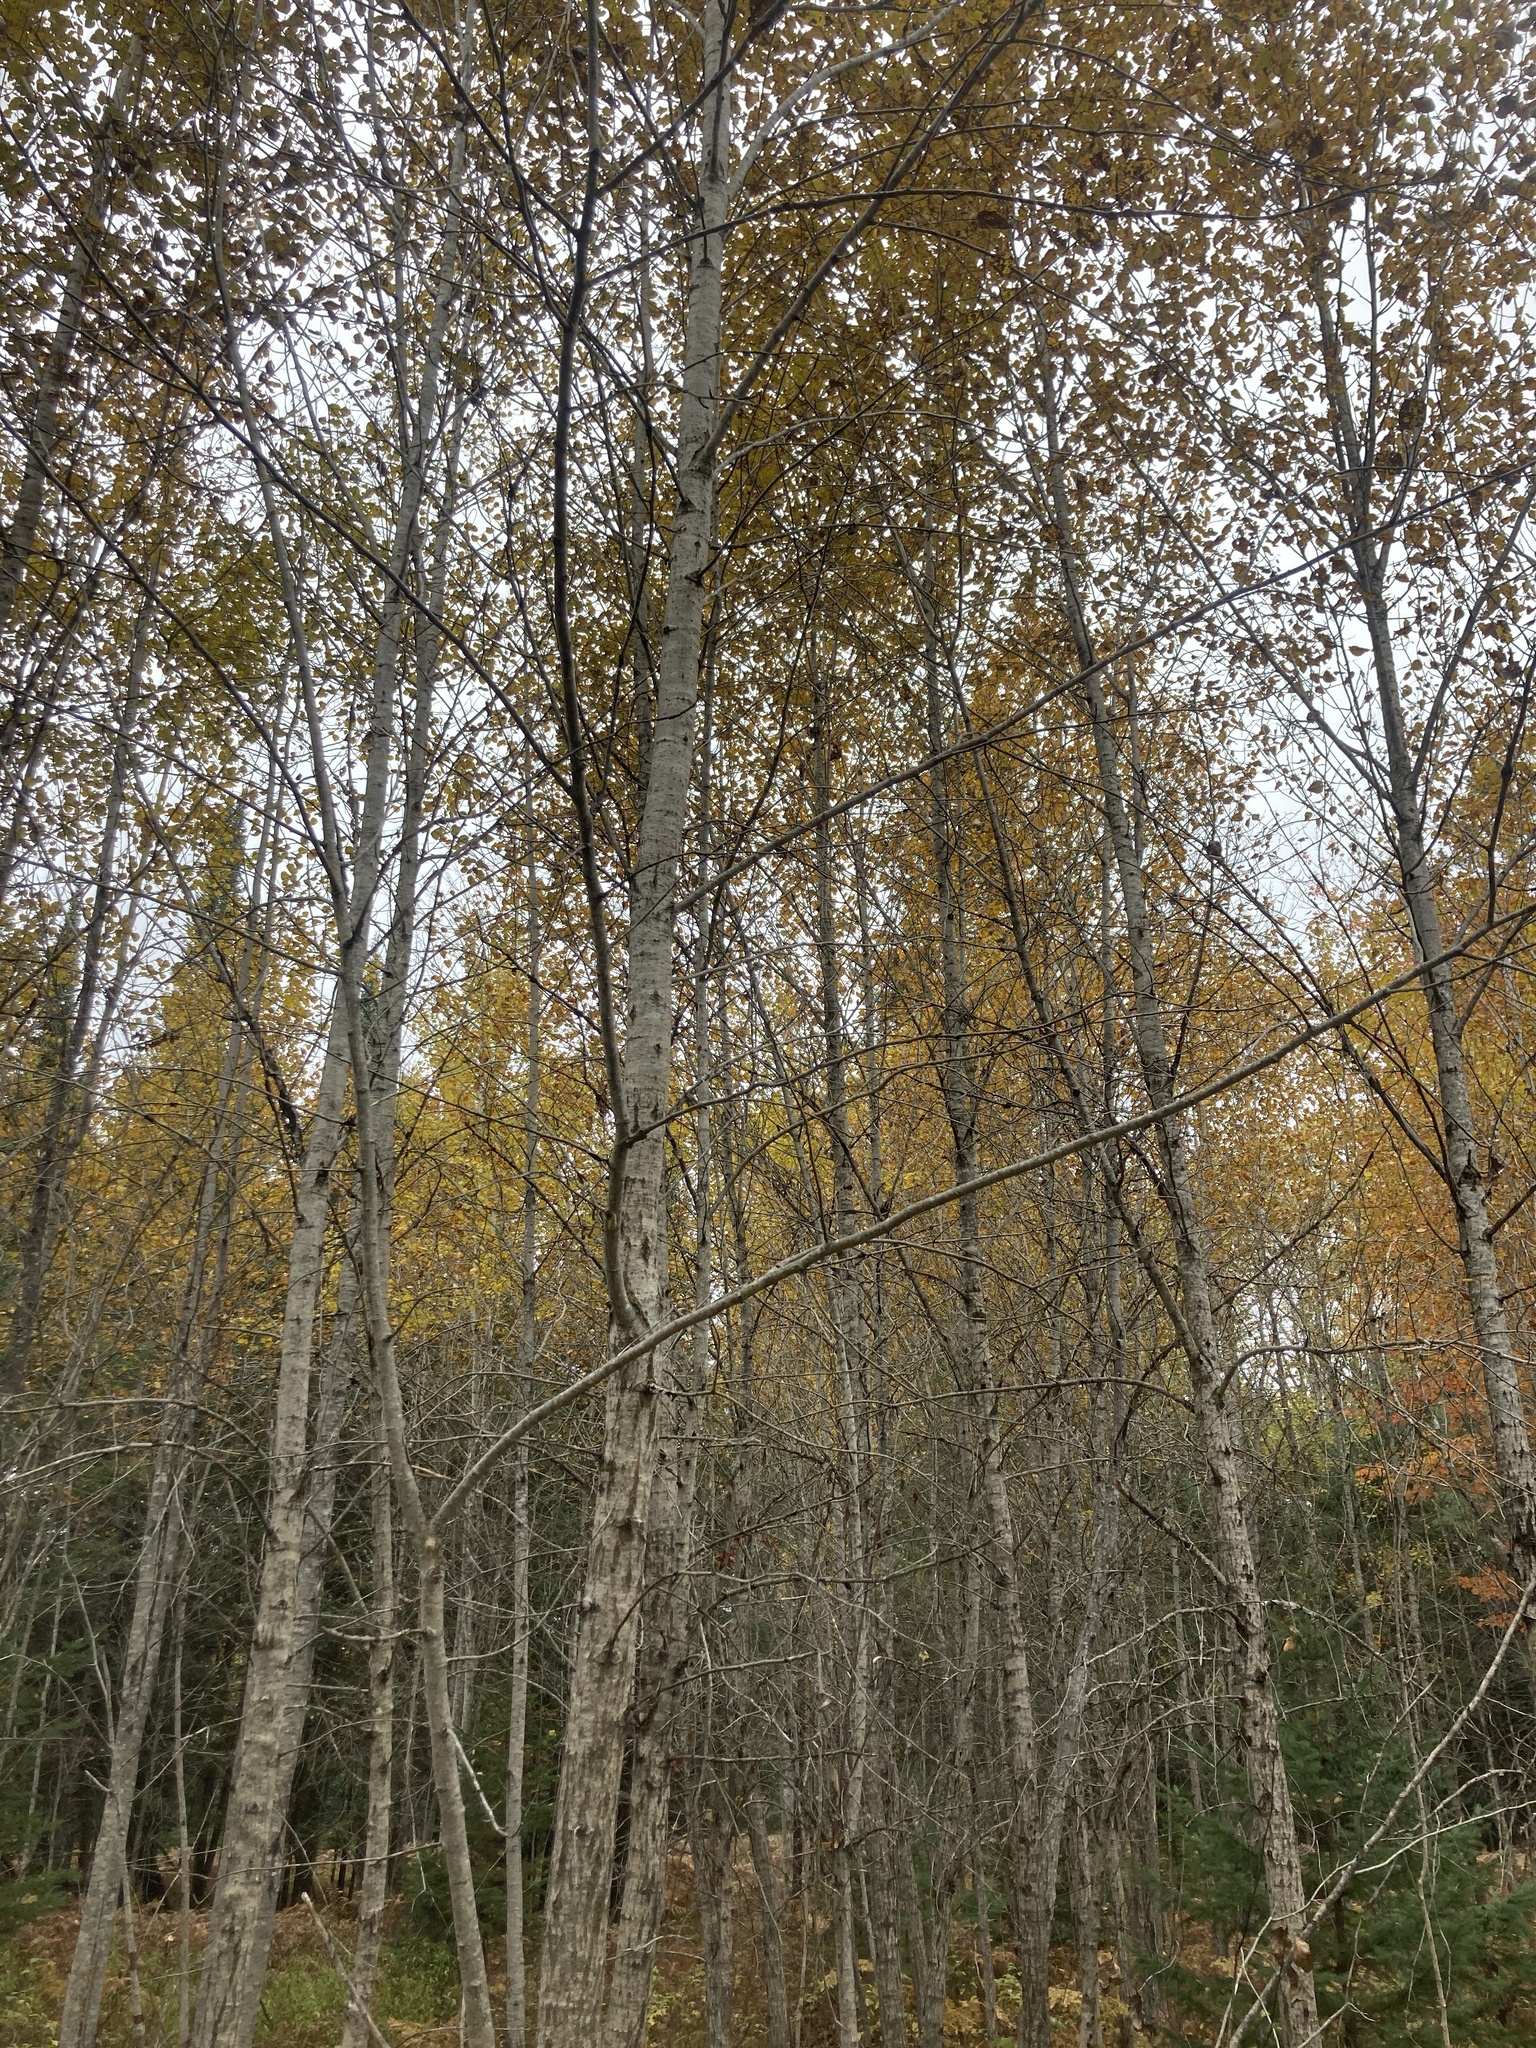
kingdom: Plantae
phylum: Tracheophyta
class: Magnoliopsida
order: Malpighiales
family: Salicaceae
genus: Populus
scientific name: Populus balsamifera
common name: Balsam poplar
